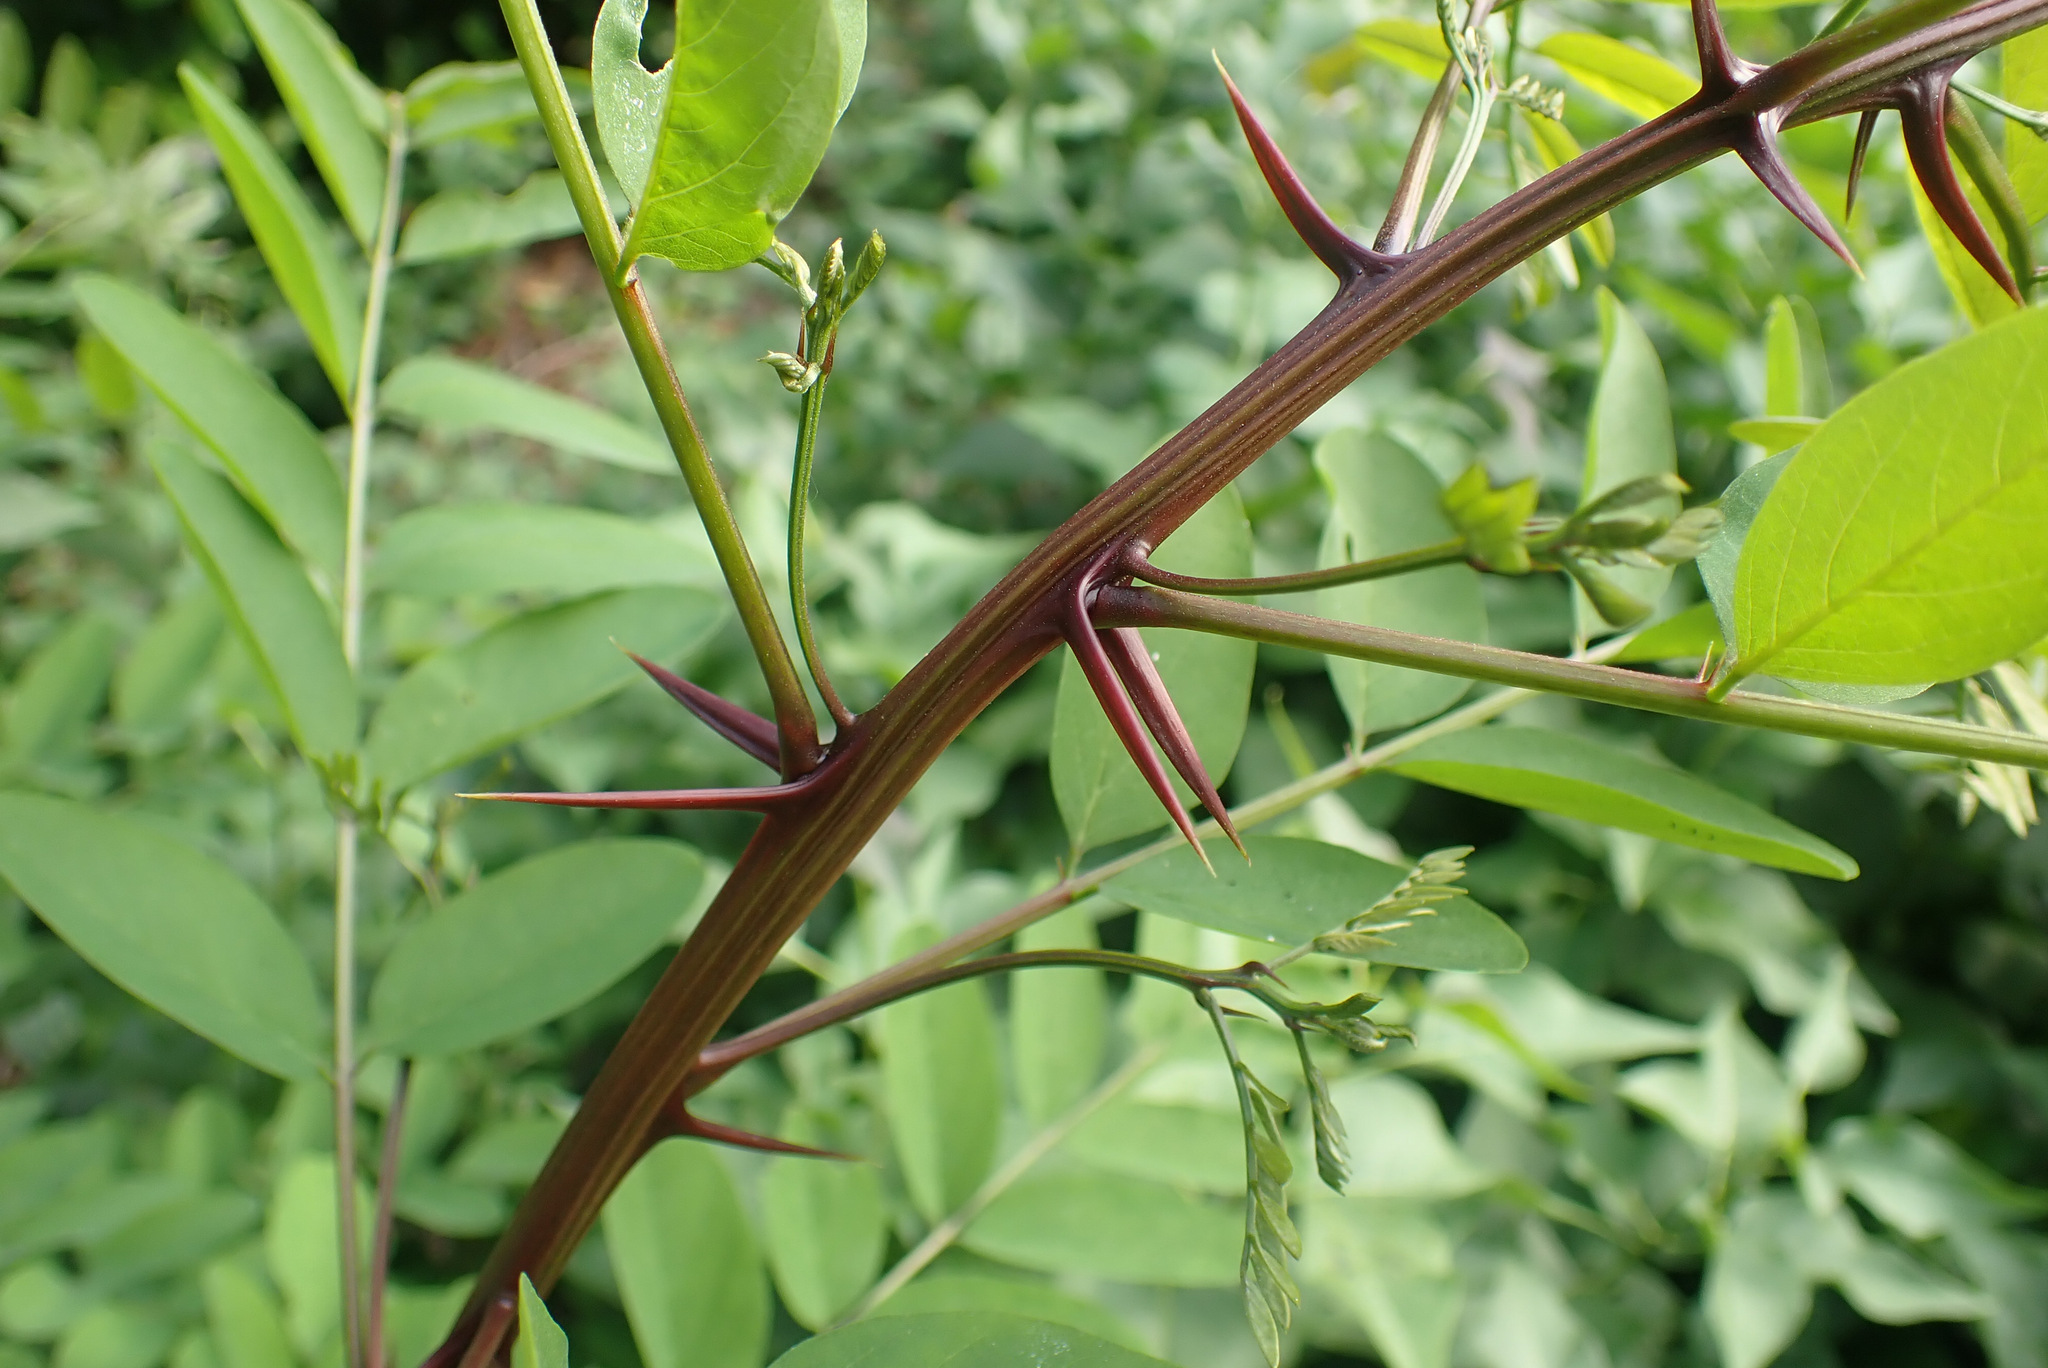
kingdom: Plantae
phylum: Tracheophyta
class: Magnoliopsida
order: Fabales
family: Fabaceae
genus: Robinia
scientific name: Robinia pseudoacacia
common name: Black locust
